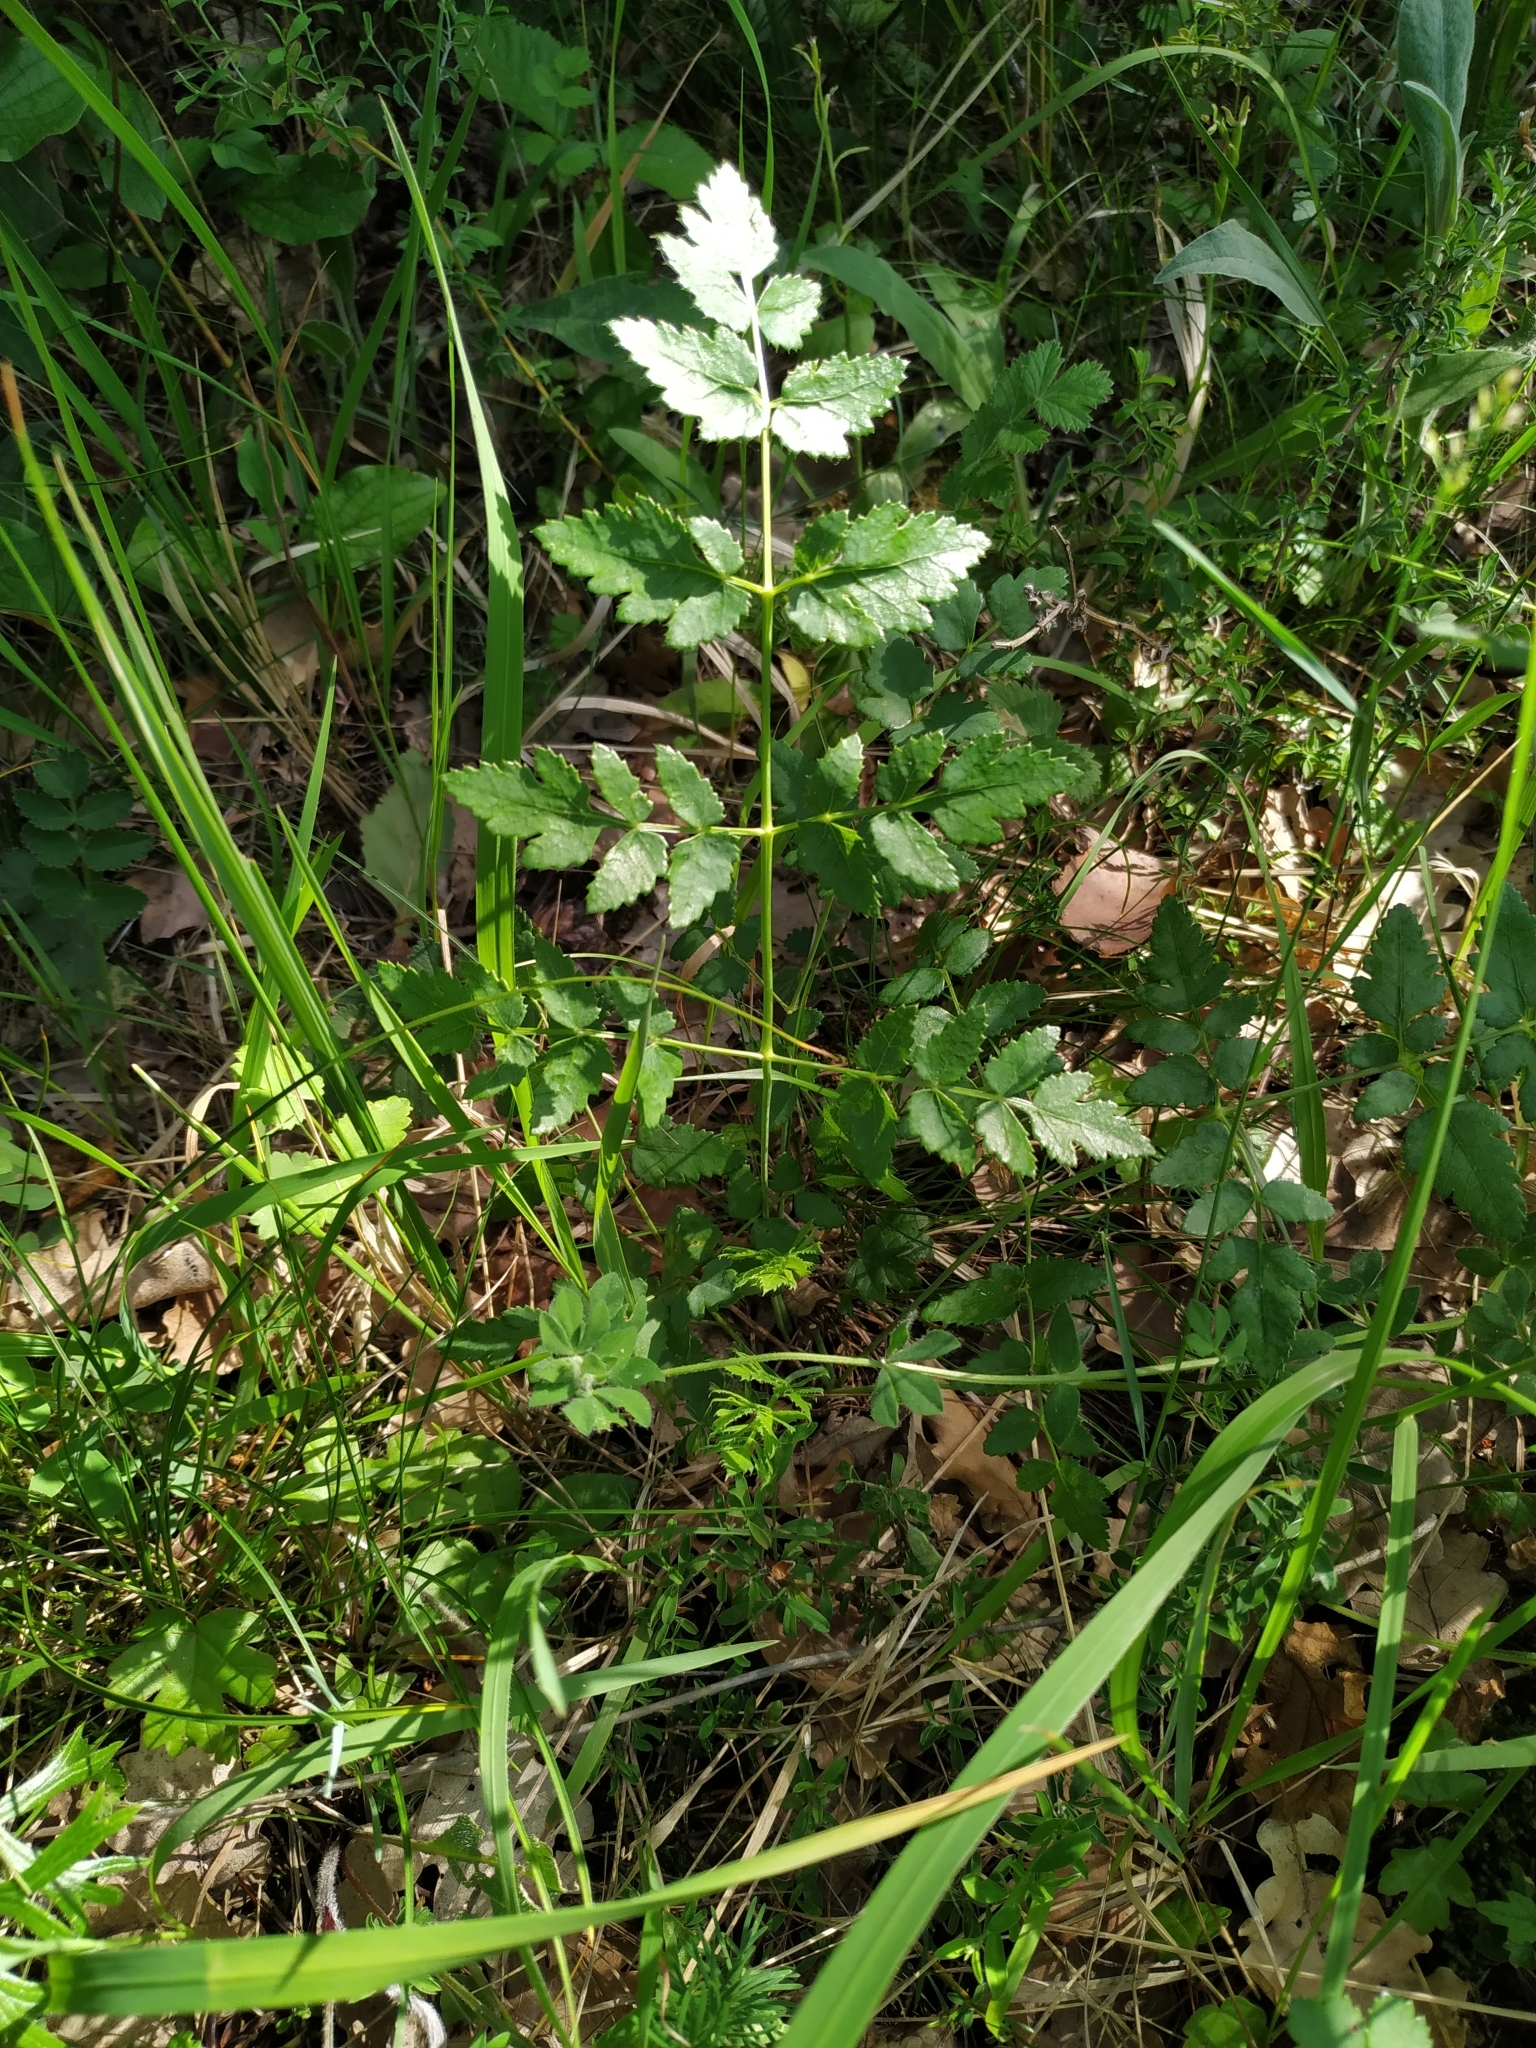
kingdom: Plantae
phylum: Tracheophyta
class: Magnoliopsida
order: Apiales
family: Apiaceae
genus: Cervaria
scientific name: Cervaria rivini
